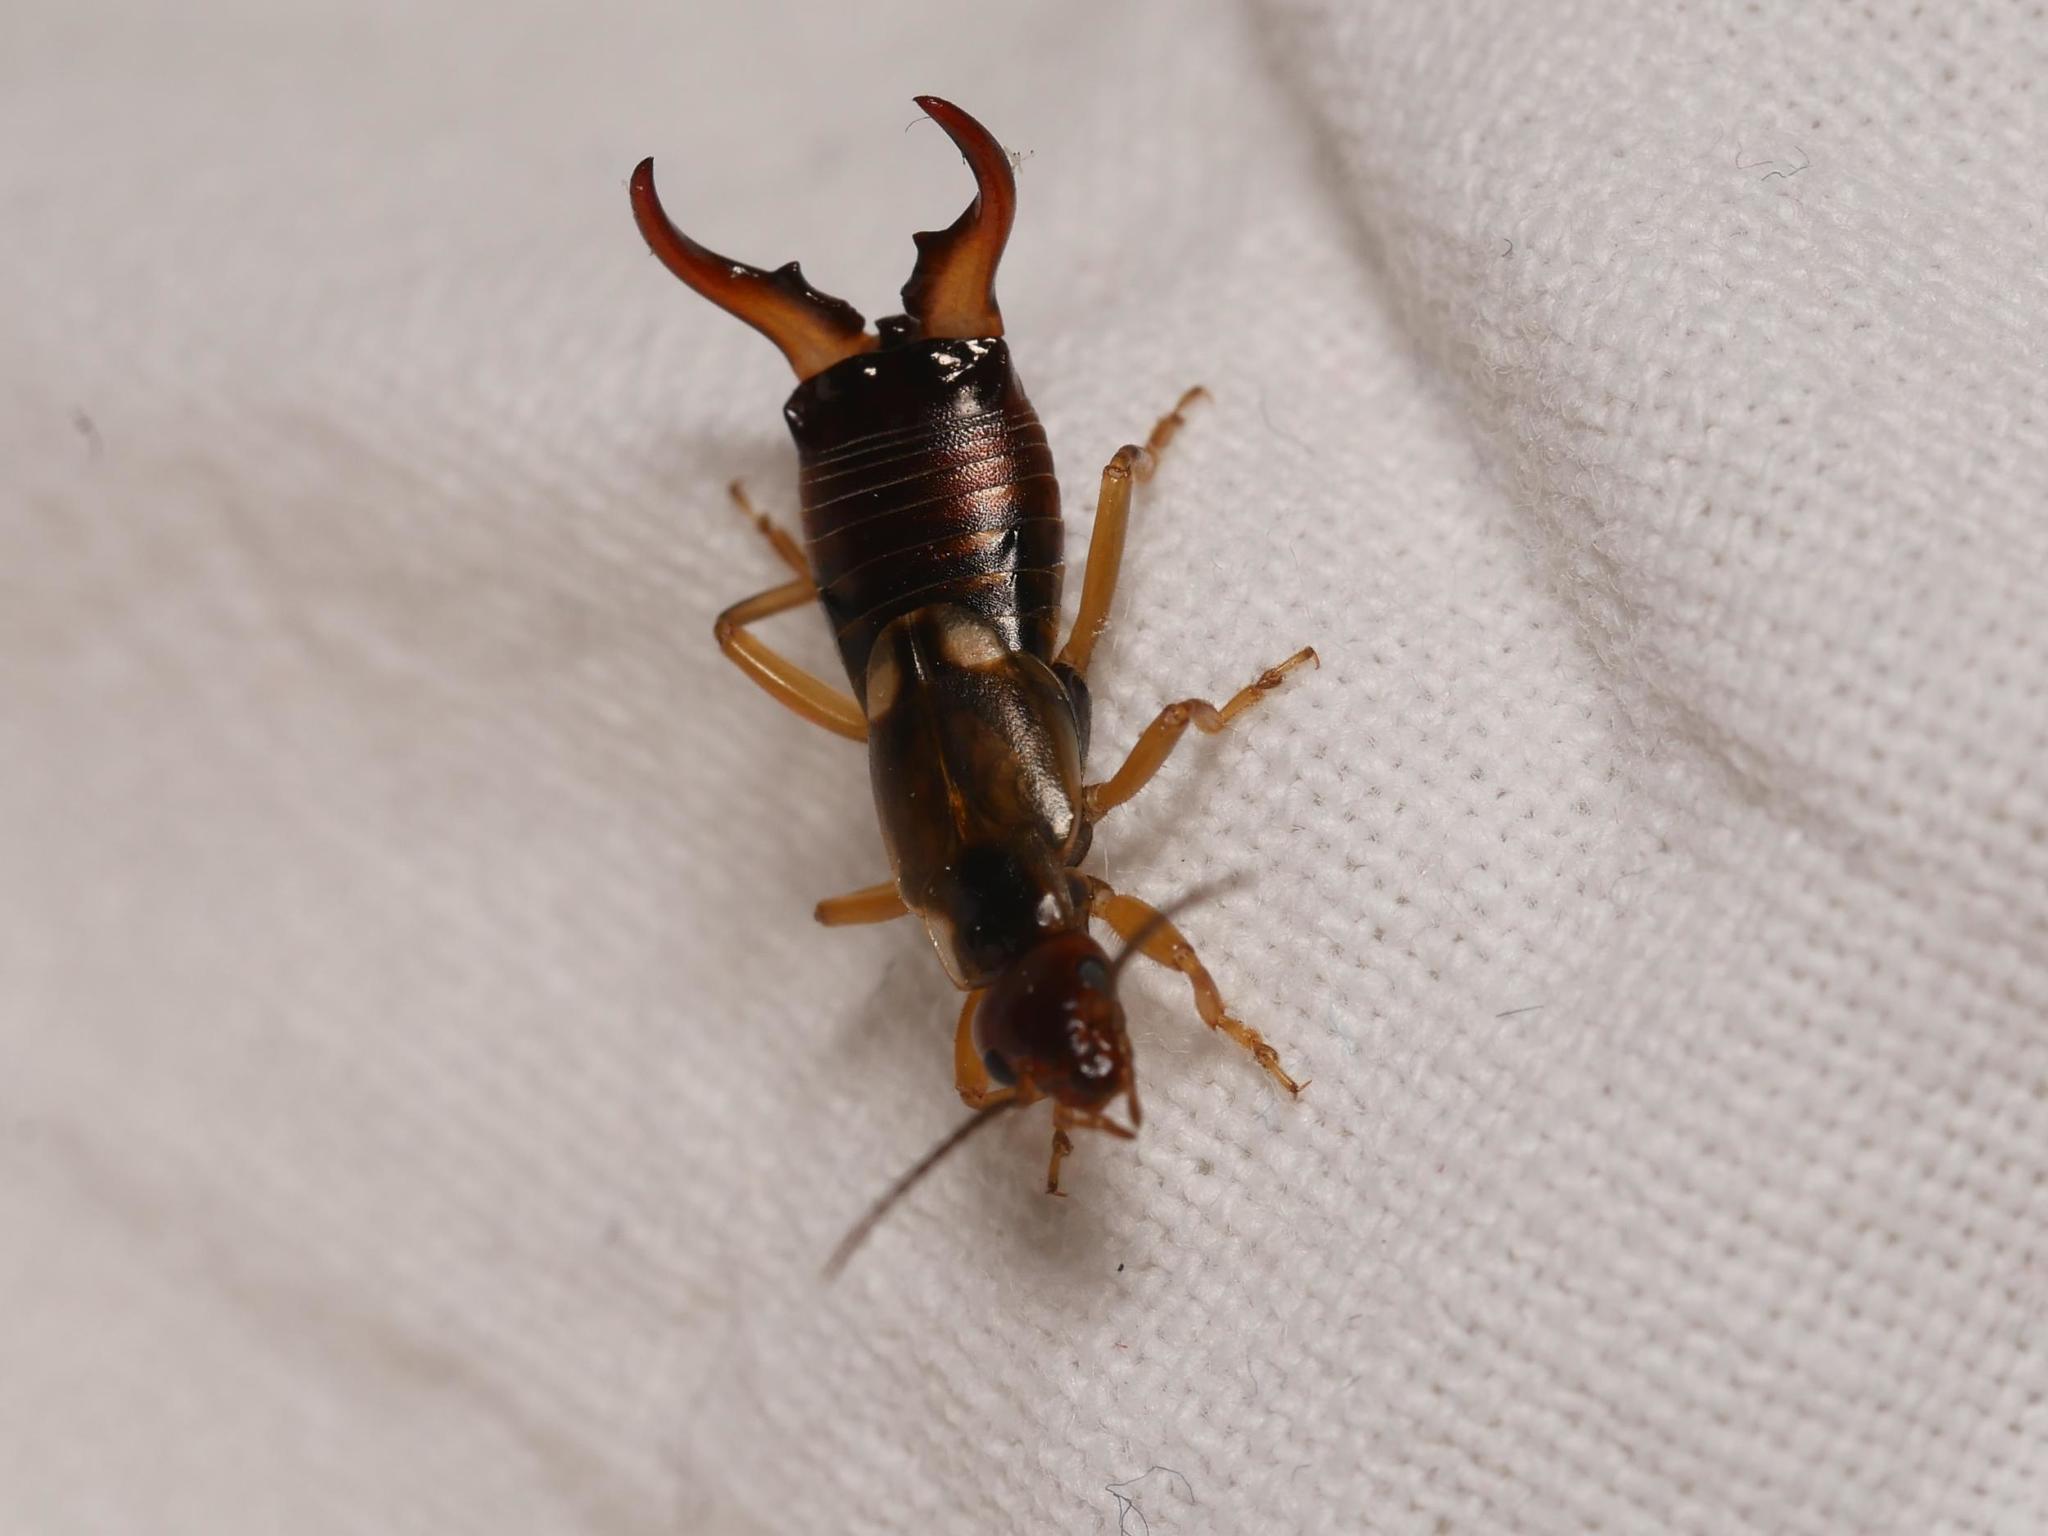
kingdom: Animalia
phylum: Arthropoda
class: Insecta
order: Dermaptera
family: Forficulidae
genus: Forficula
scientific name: Forficula
